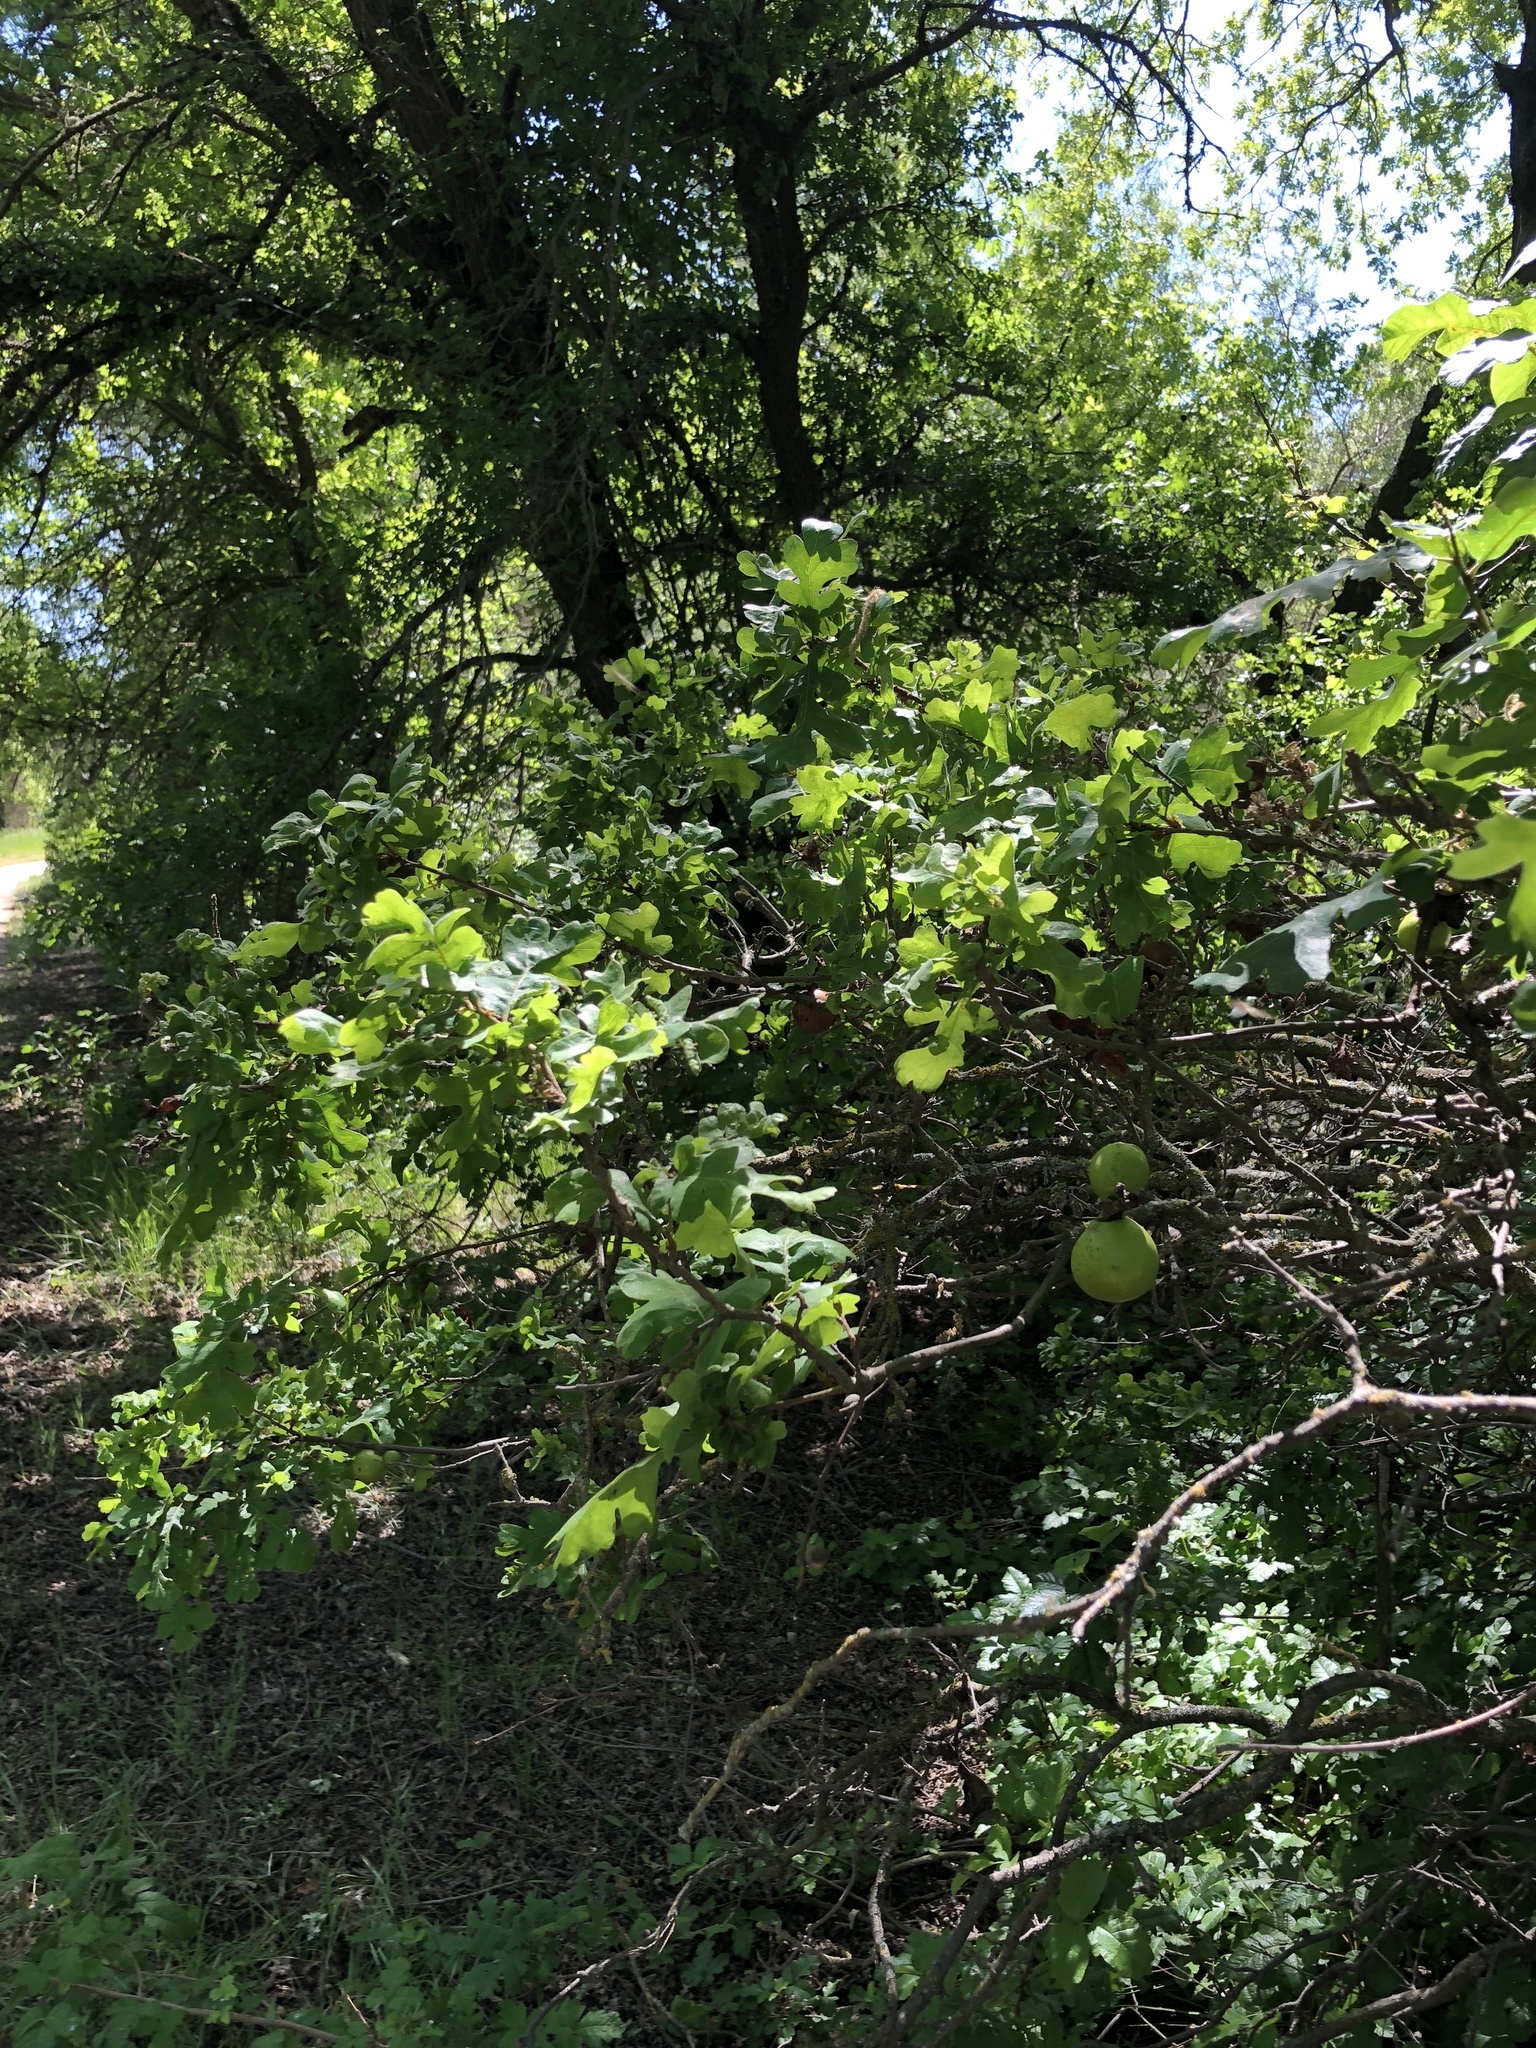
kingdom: Plantae
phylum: Tracheophyta
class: Magnoliopsida
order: Fagales
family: Fagaceae
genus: Quercus
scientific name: Quercus lobata
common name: Valley oak
